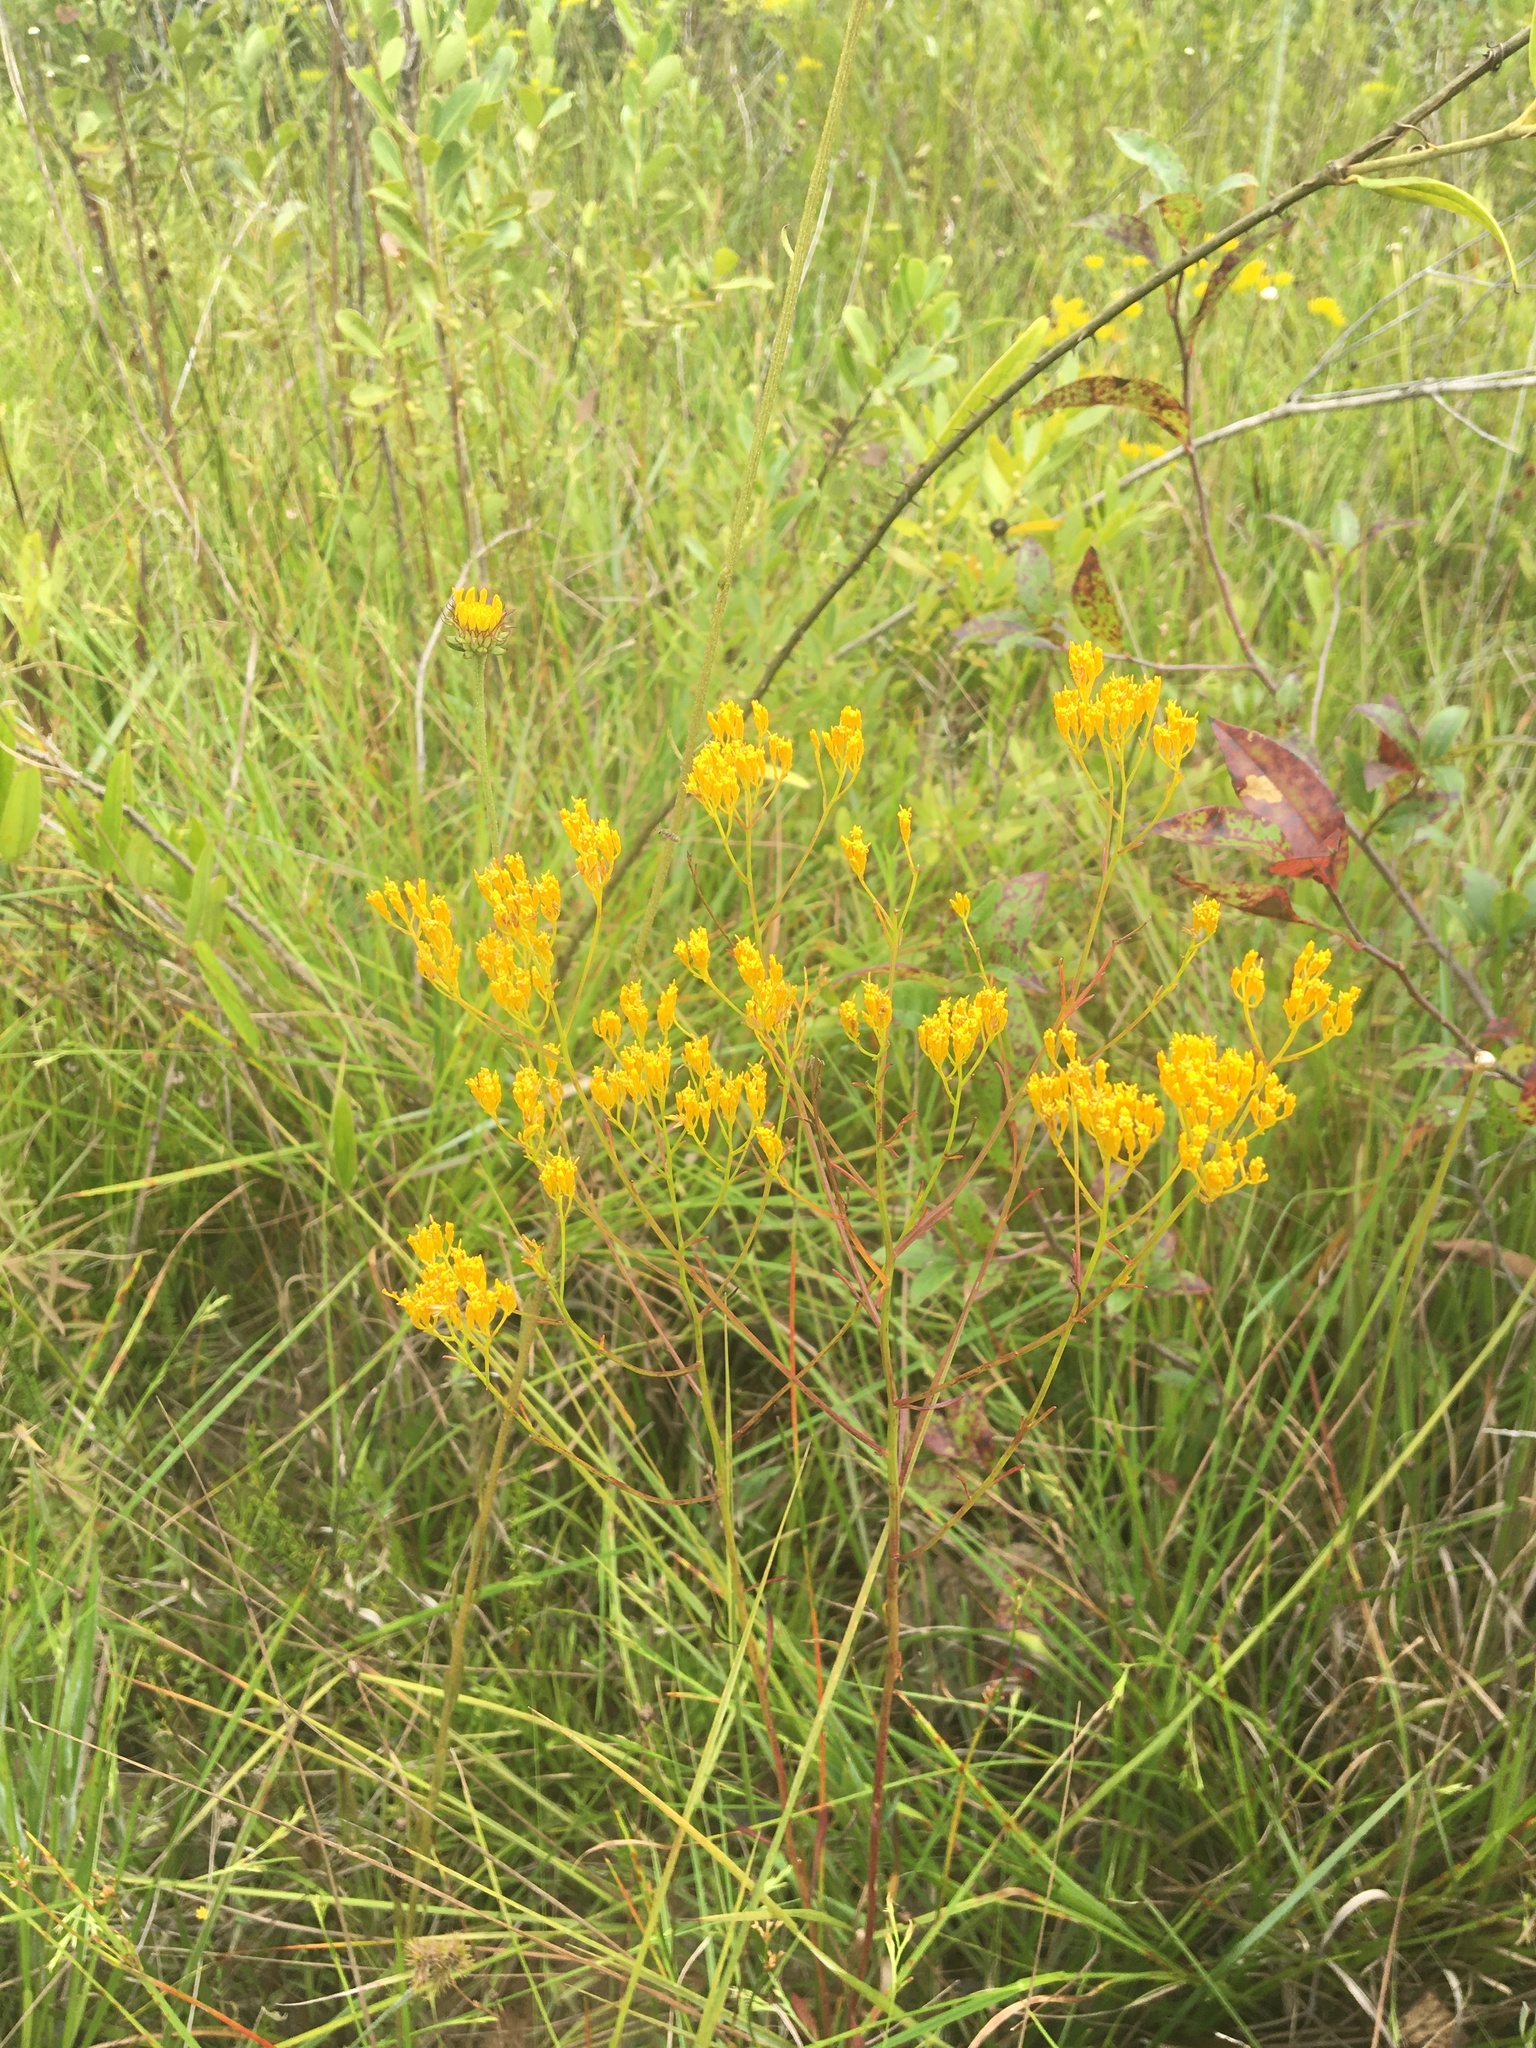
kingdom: Plantae
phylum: Tracheophyta
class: Magnoliopsida
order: Asterales
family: Asteraceae
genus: Bigelowia
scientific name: Bigelowia nudata
